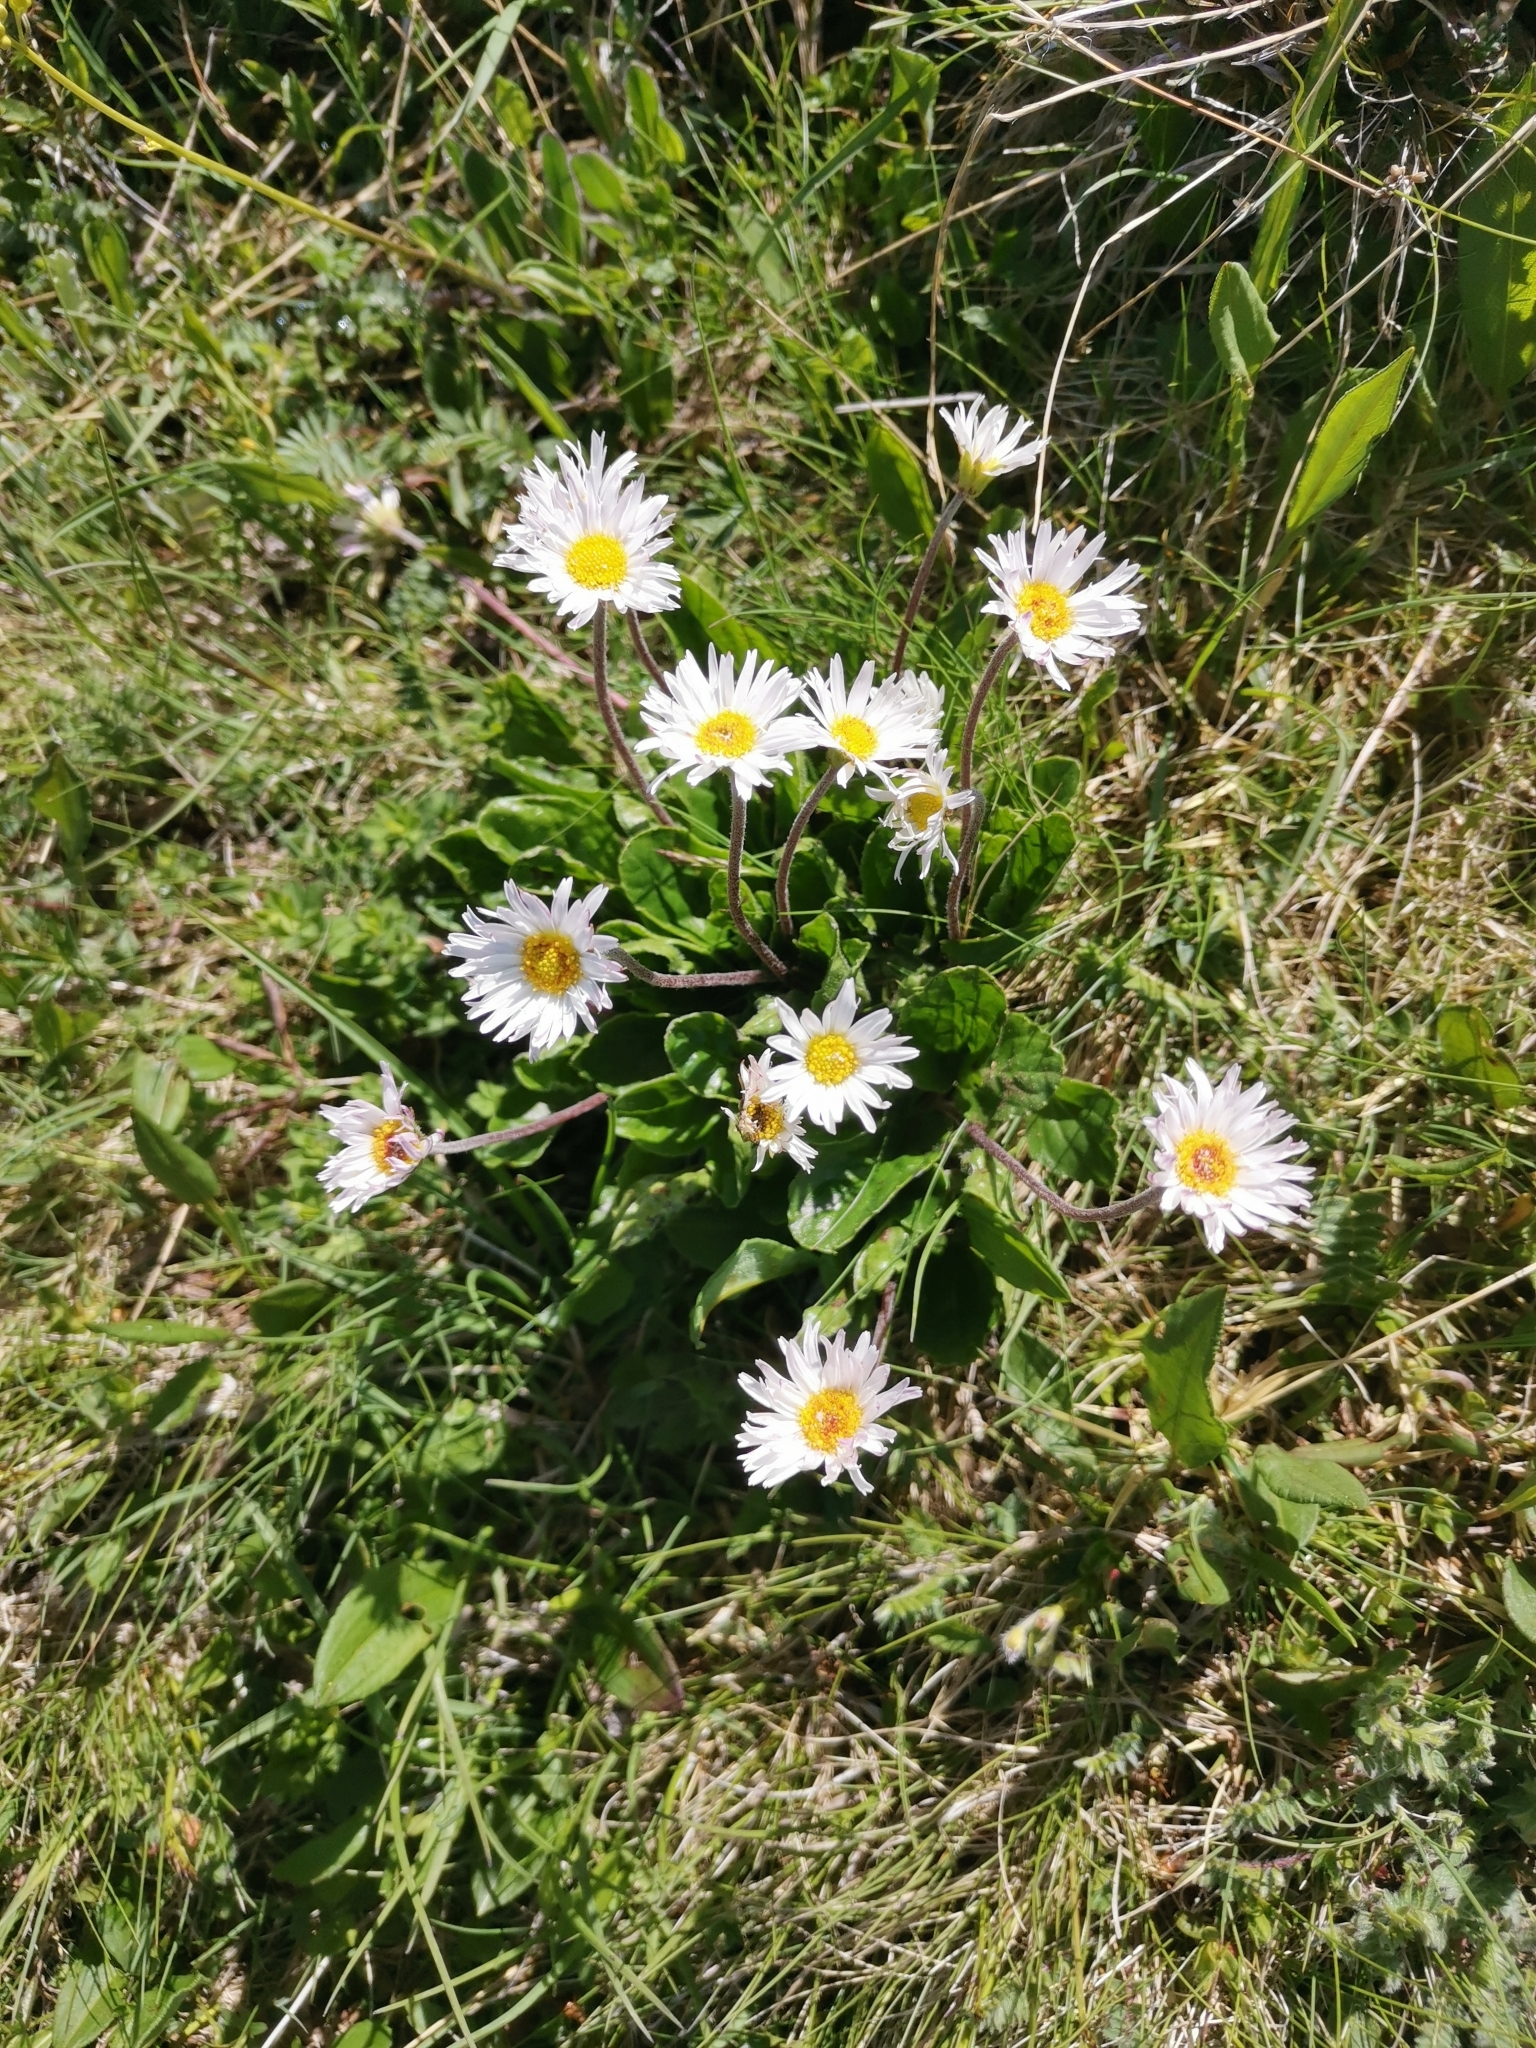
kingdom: Plantae
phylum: Tracheophyta
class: Magnoliopsida
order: Asterales
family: Asteraceae
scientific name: Asteraceae
